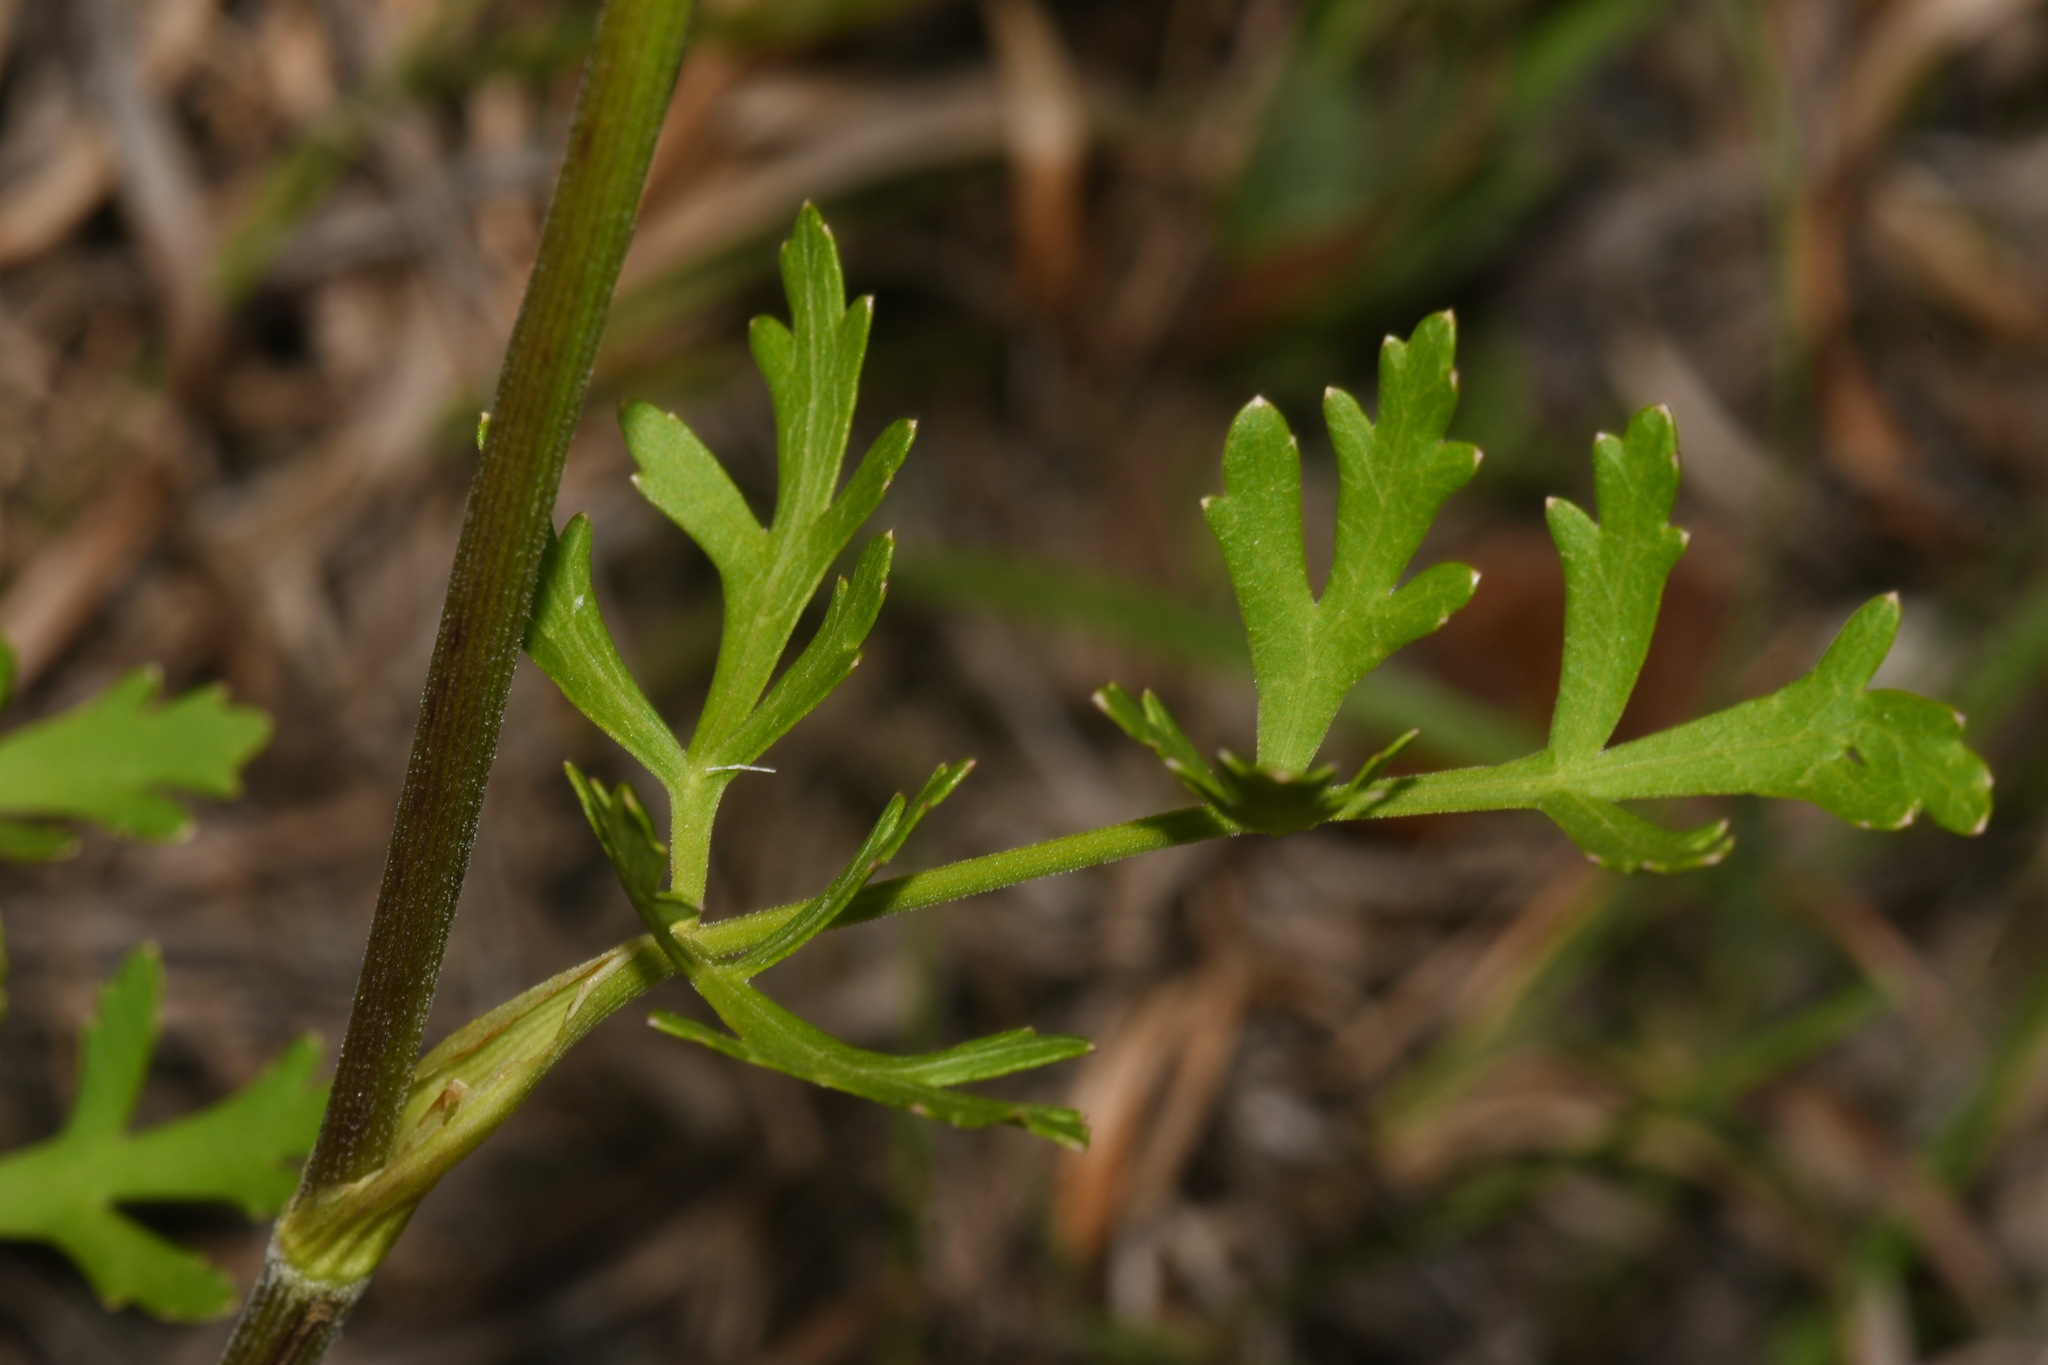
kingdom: Plantae
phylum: Tracheophyta
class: Magnoliopsida
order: Apiales
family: Apiaceae
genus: Polytaenia
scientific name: Polytaenia nuttallii
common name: Prairie-parsley
